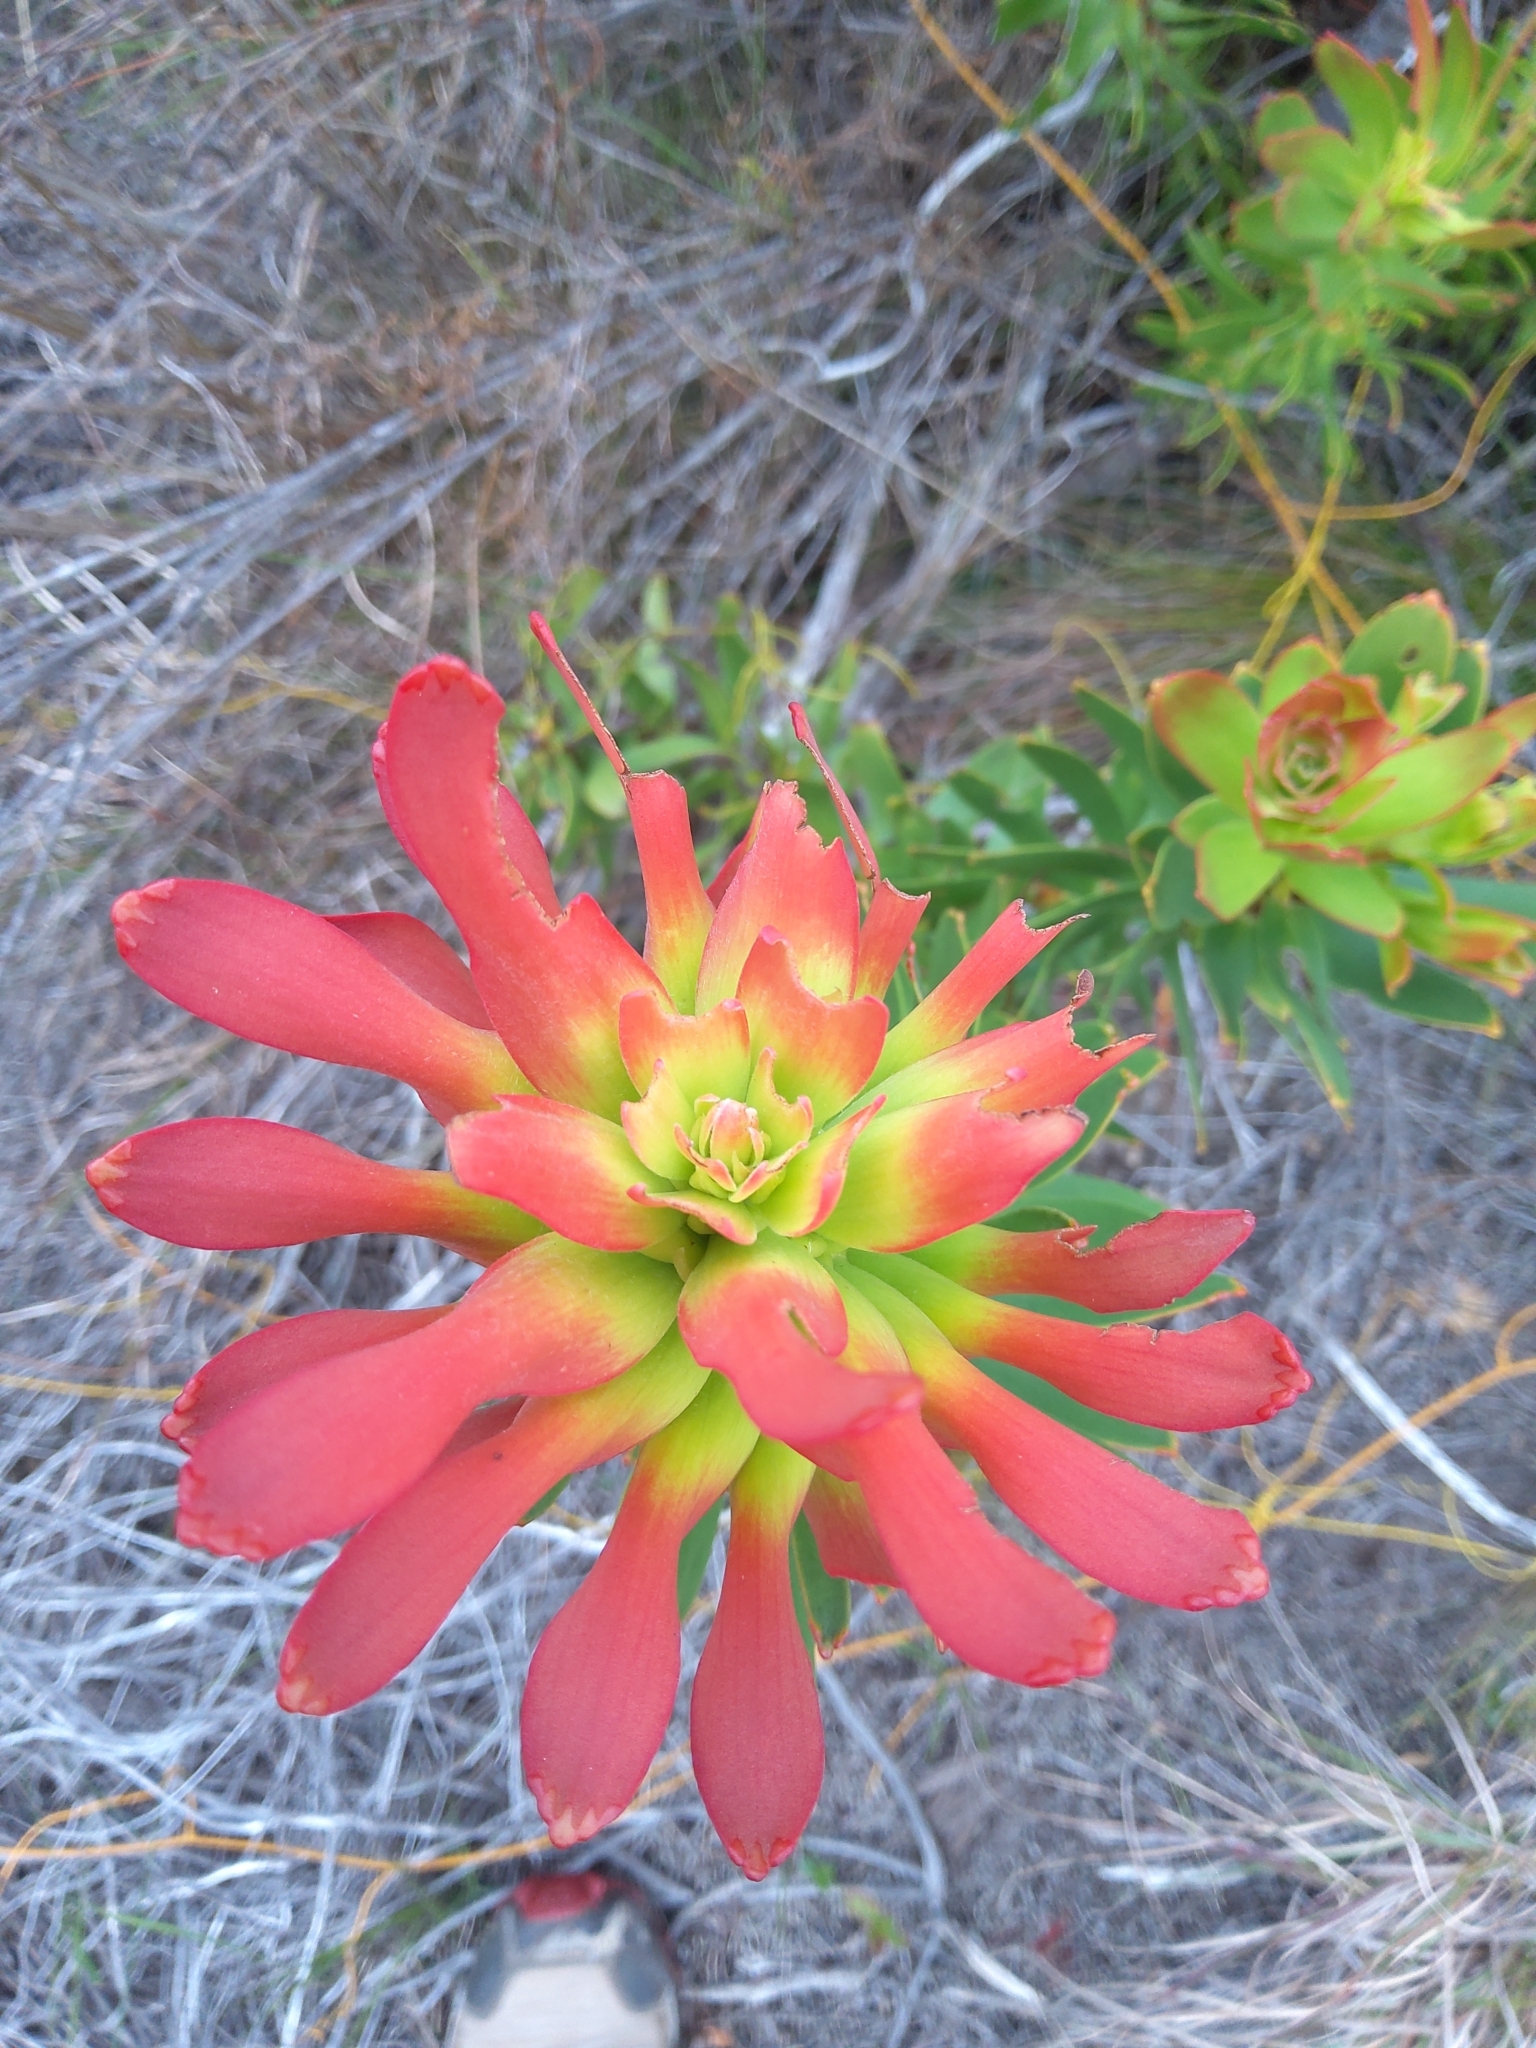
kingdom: Plantae
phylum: Tracheophyta
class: Magnoliopsida
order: Proteales
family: Proteaceae
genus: Mimetes
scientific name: Mimetes cucullatus
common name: Common pagoda
